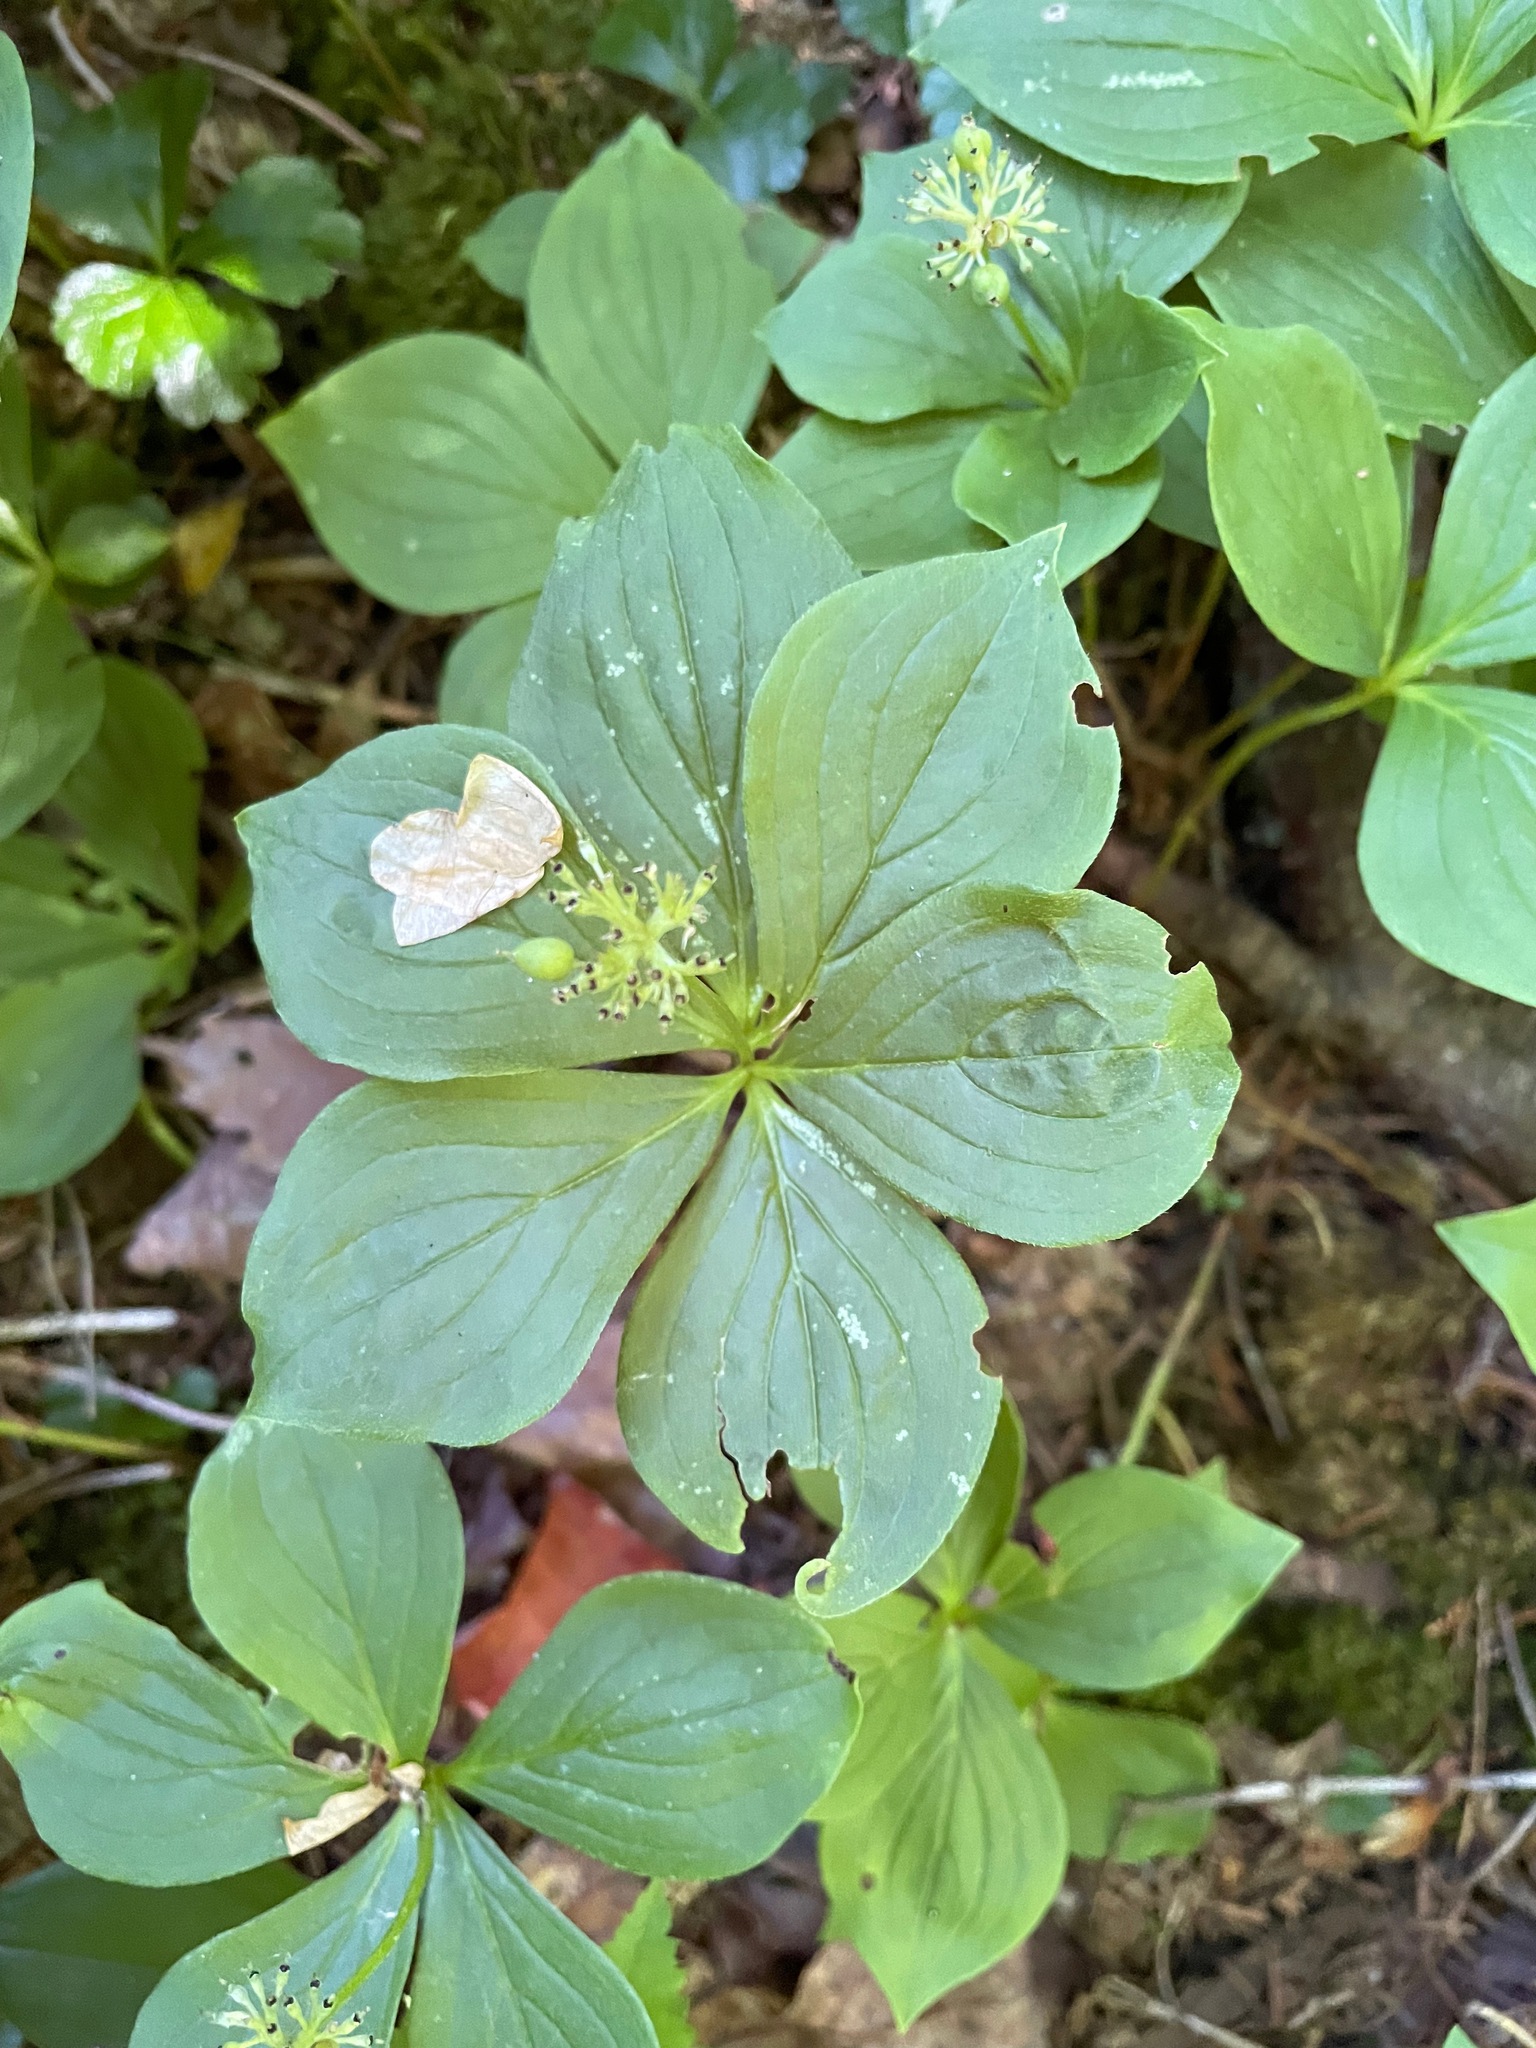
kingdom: Plantae
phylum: Tracheophyta
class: Magnoliopsida
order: Cornales
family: Cornaceae
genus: Cornus
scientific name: Cornus canadensis
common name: Creeping dogwood
